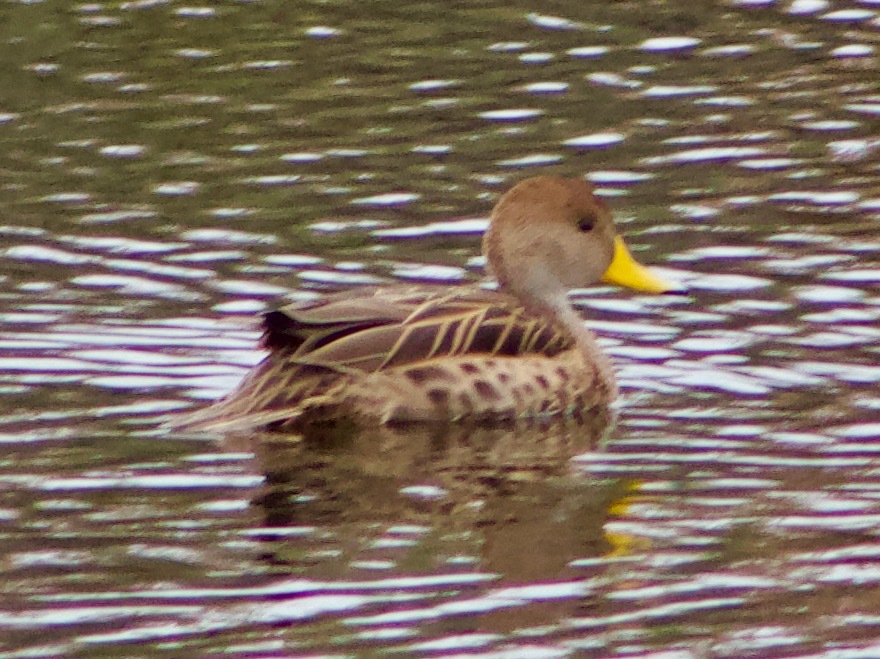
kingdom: Animalia
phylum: Chordata
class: Aves
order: Anseriformes
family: Anatidae
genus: Anas
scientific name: Anas georgica
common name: Yellow-billed pintail
